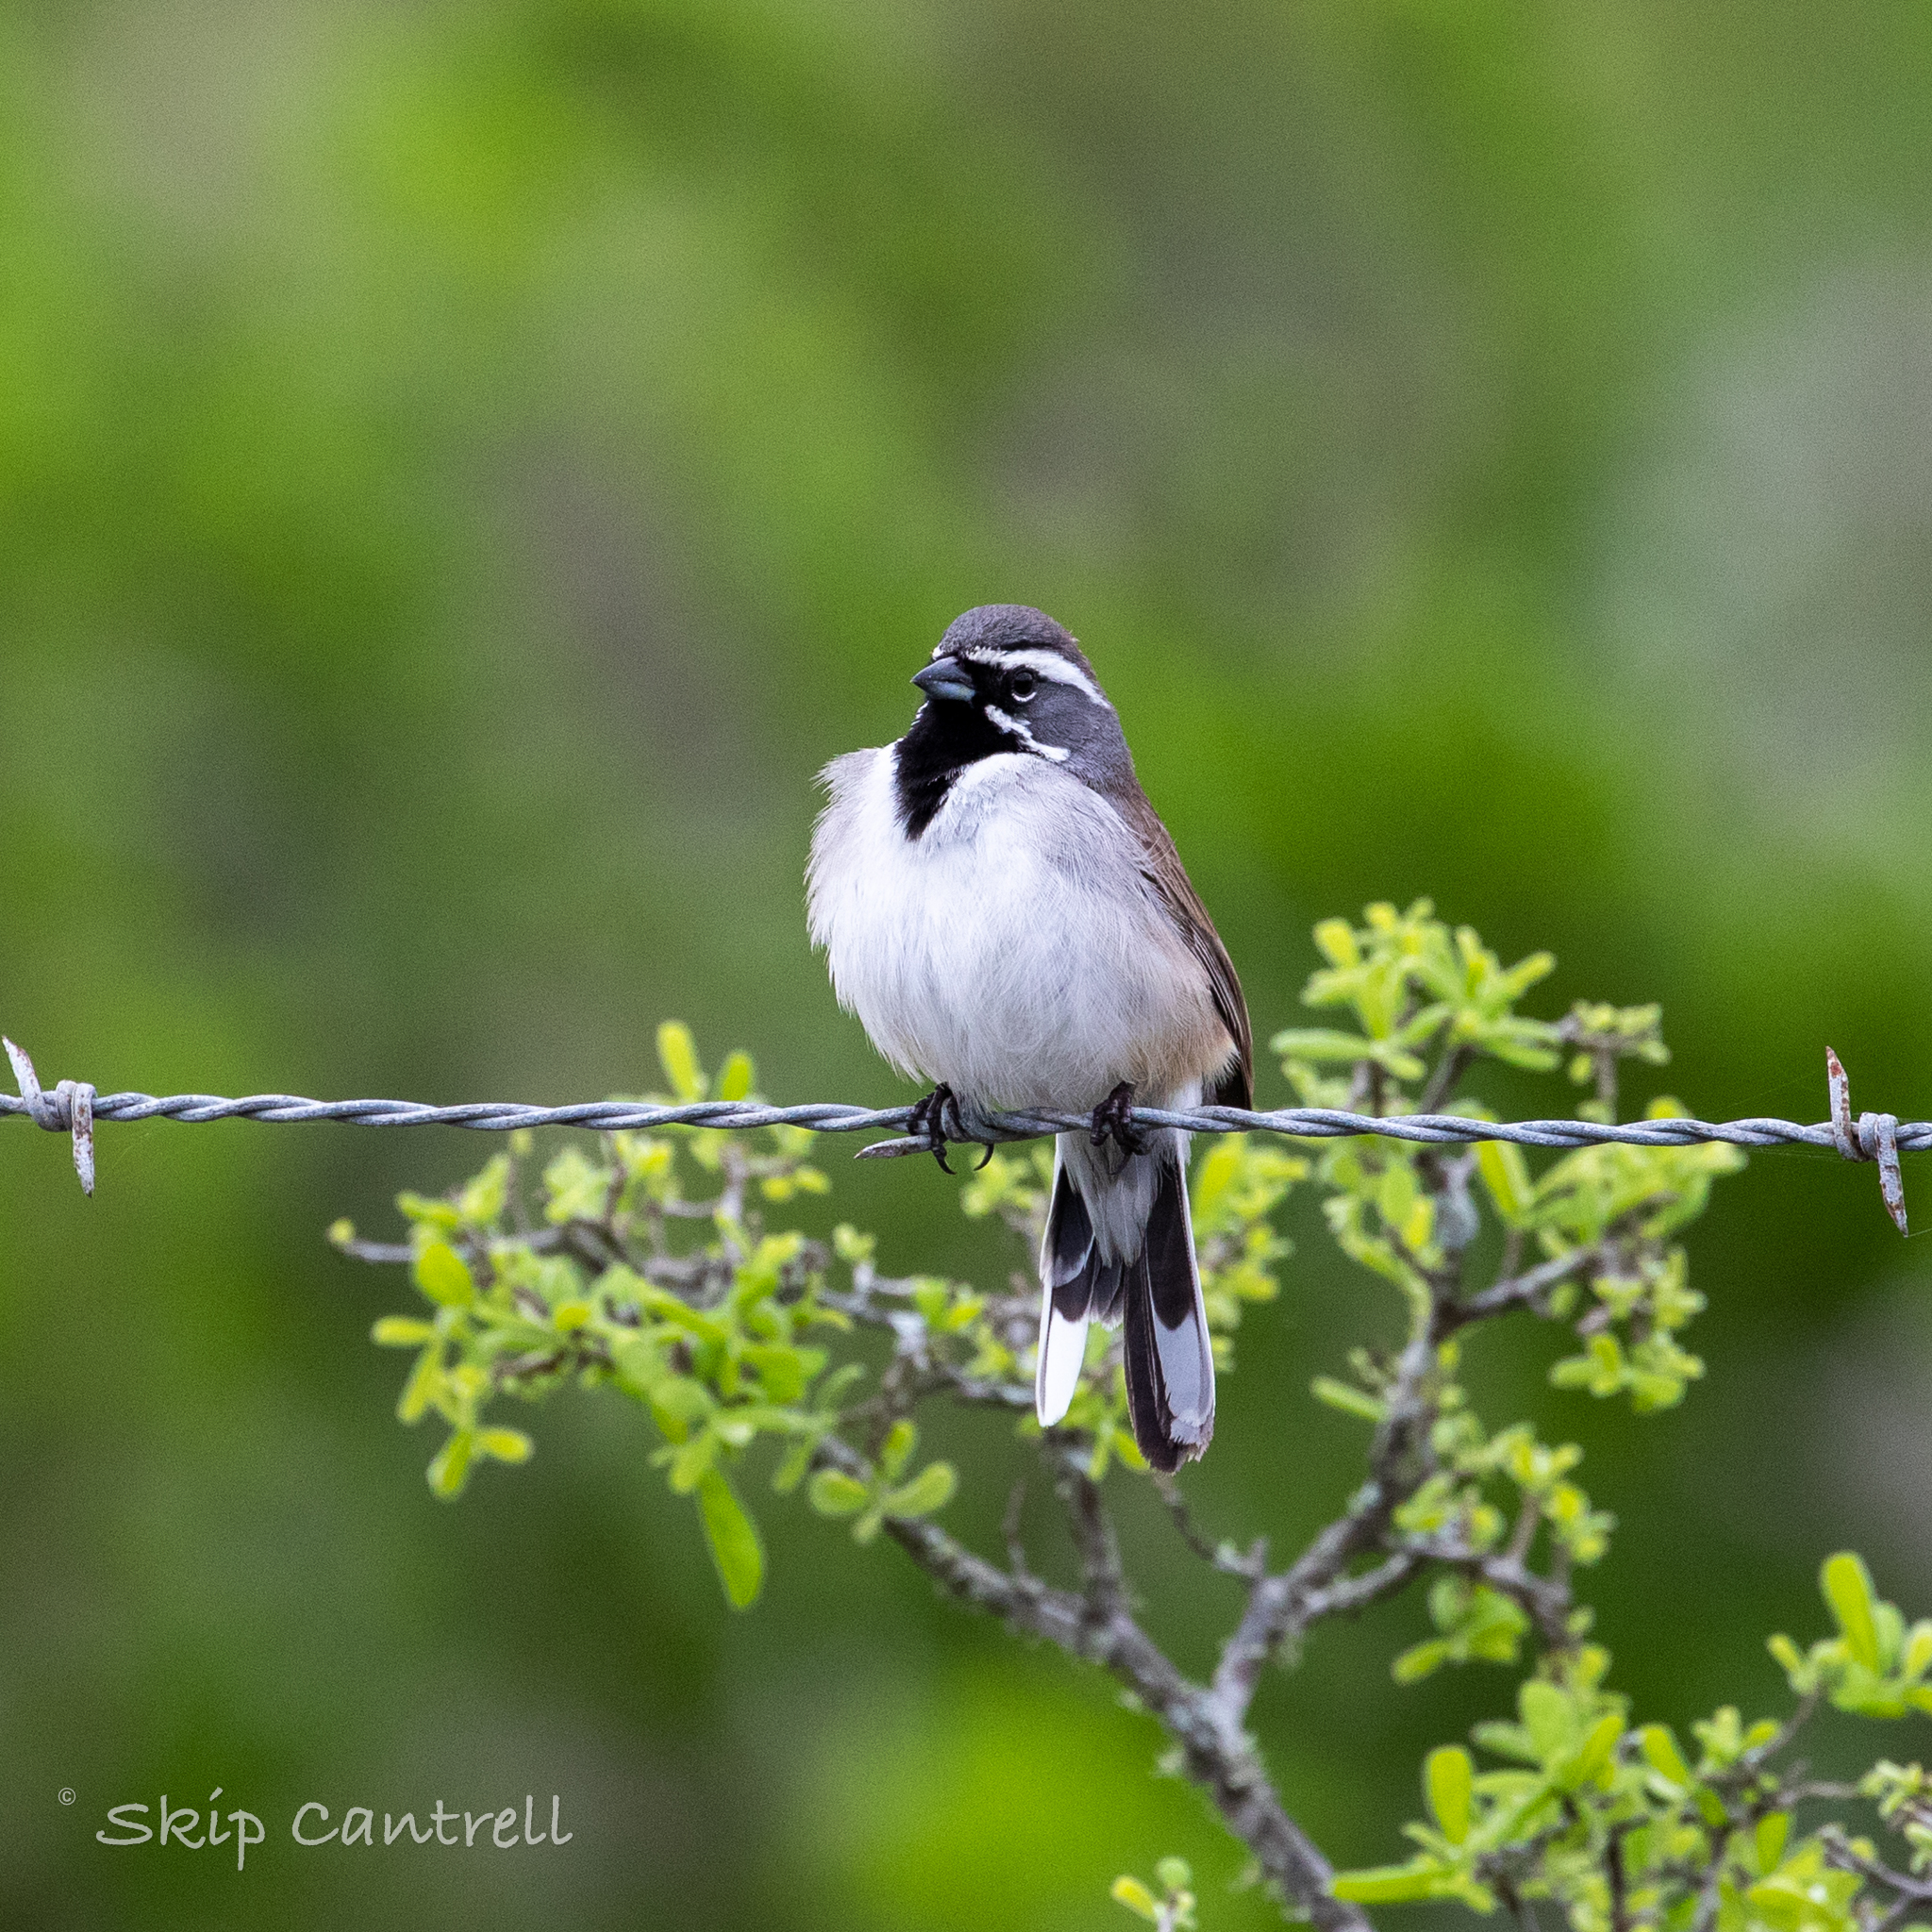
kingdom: Animalia
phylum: Chordata
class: Aves
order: Passeriformes
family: Passerellidae
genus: Amphispiza
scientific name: Amphispiza bilineata
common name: Black-throated sparrow
